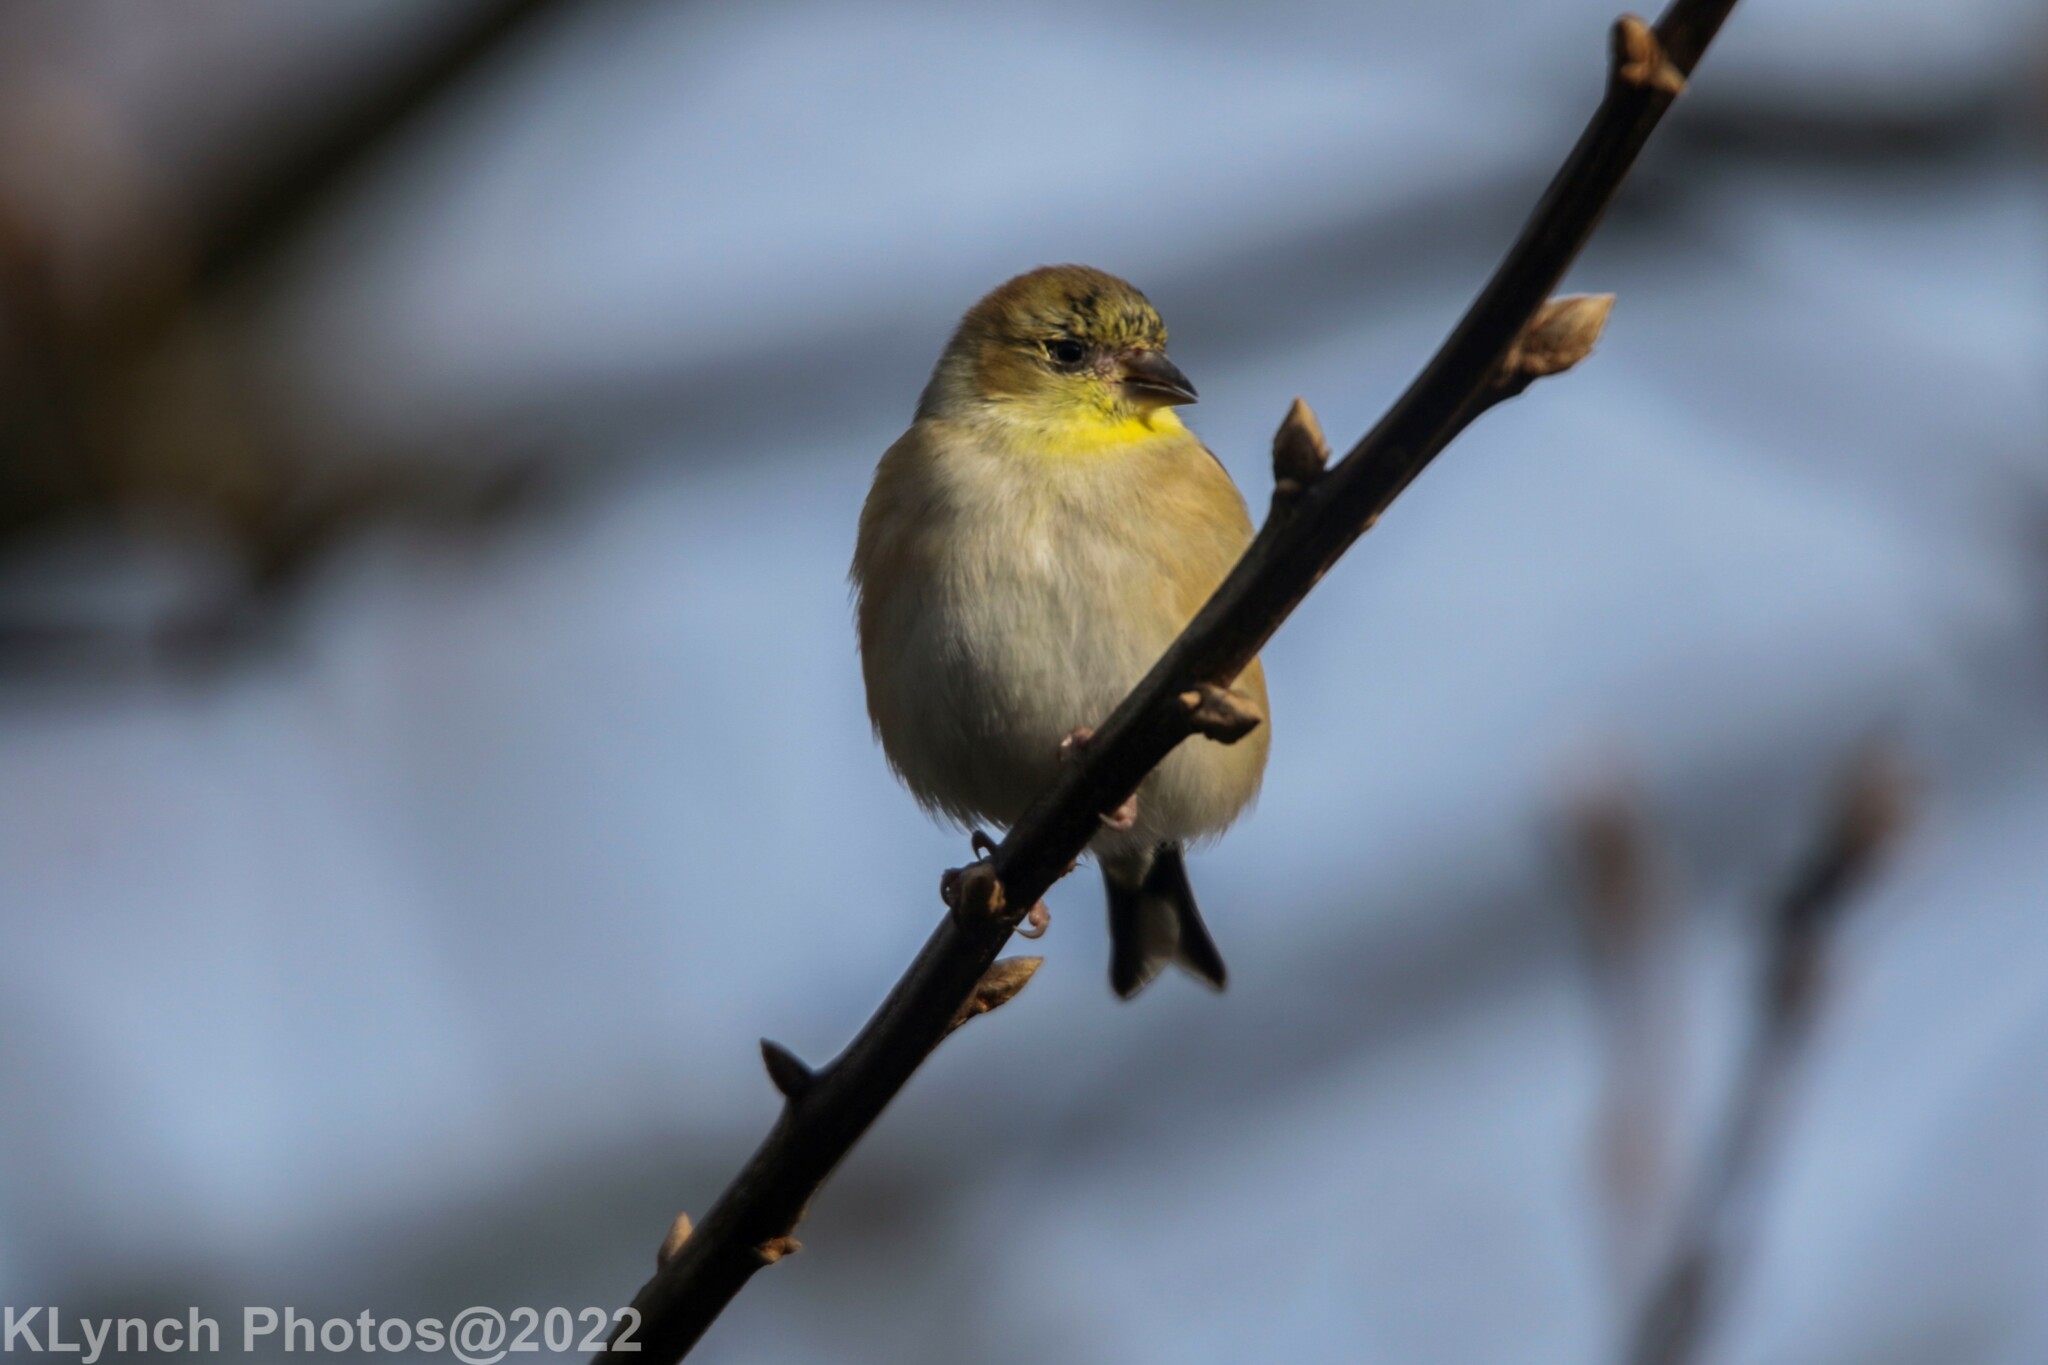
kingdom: Animalia
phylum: Chordata
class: Aves
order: Passeriformes
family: Fringillidae
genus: Spinus
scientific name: Spinus tristis
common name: American goldfinch
